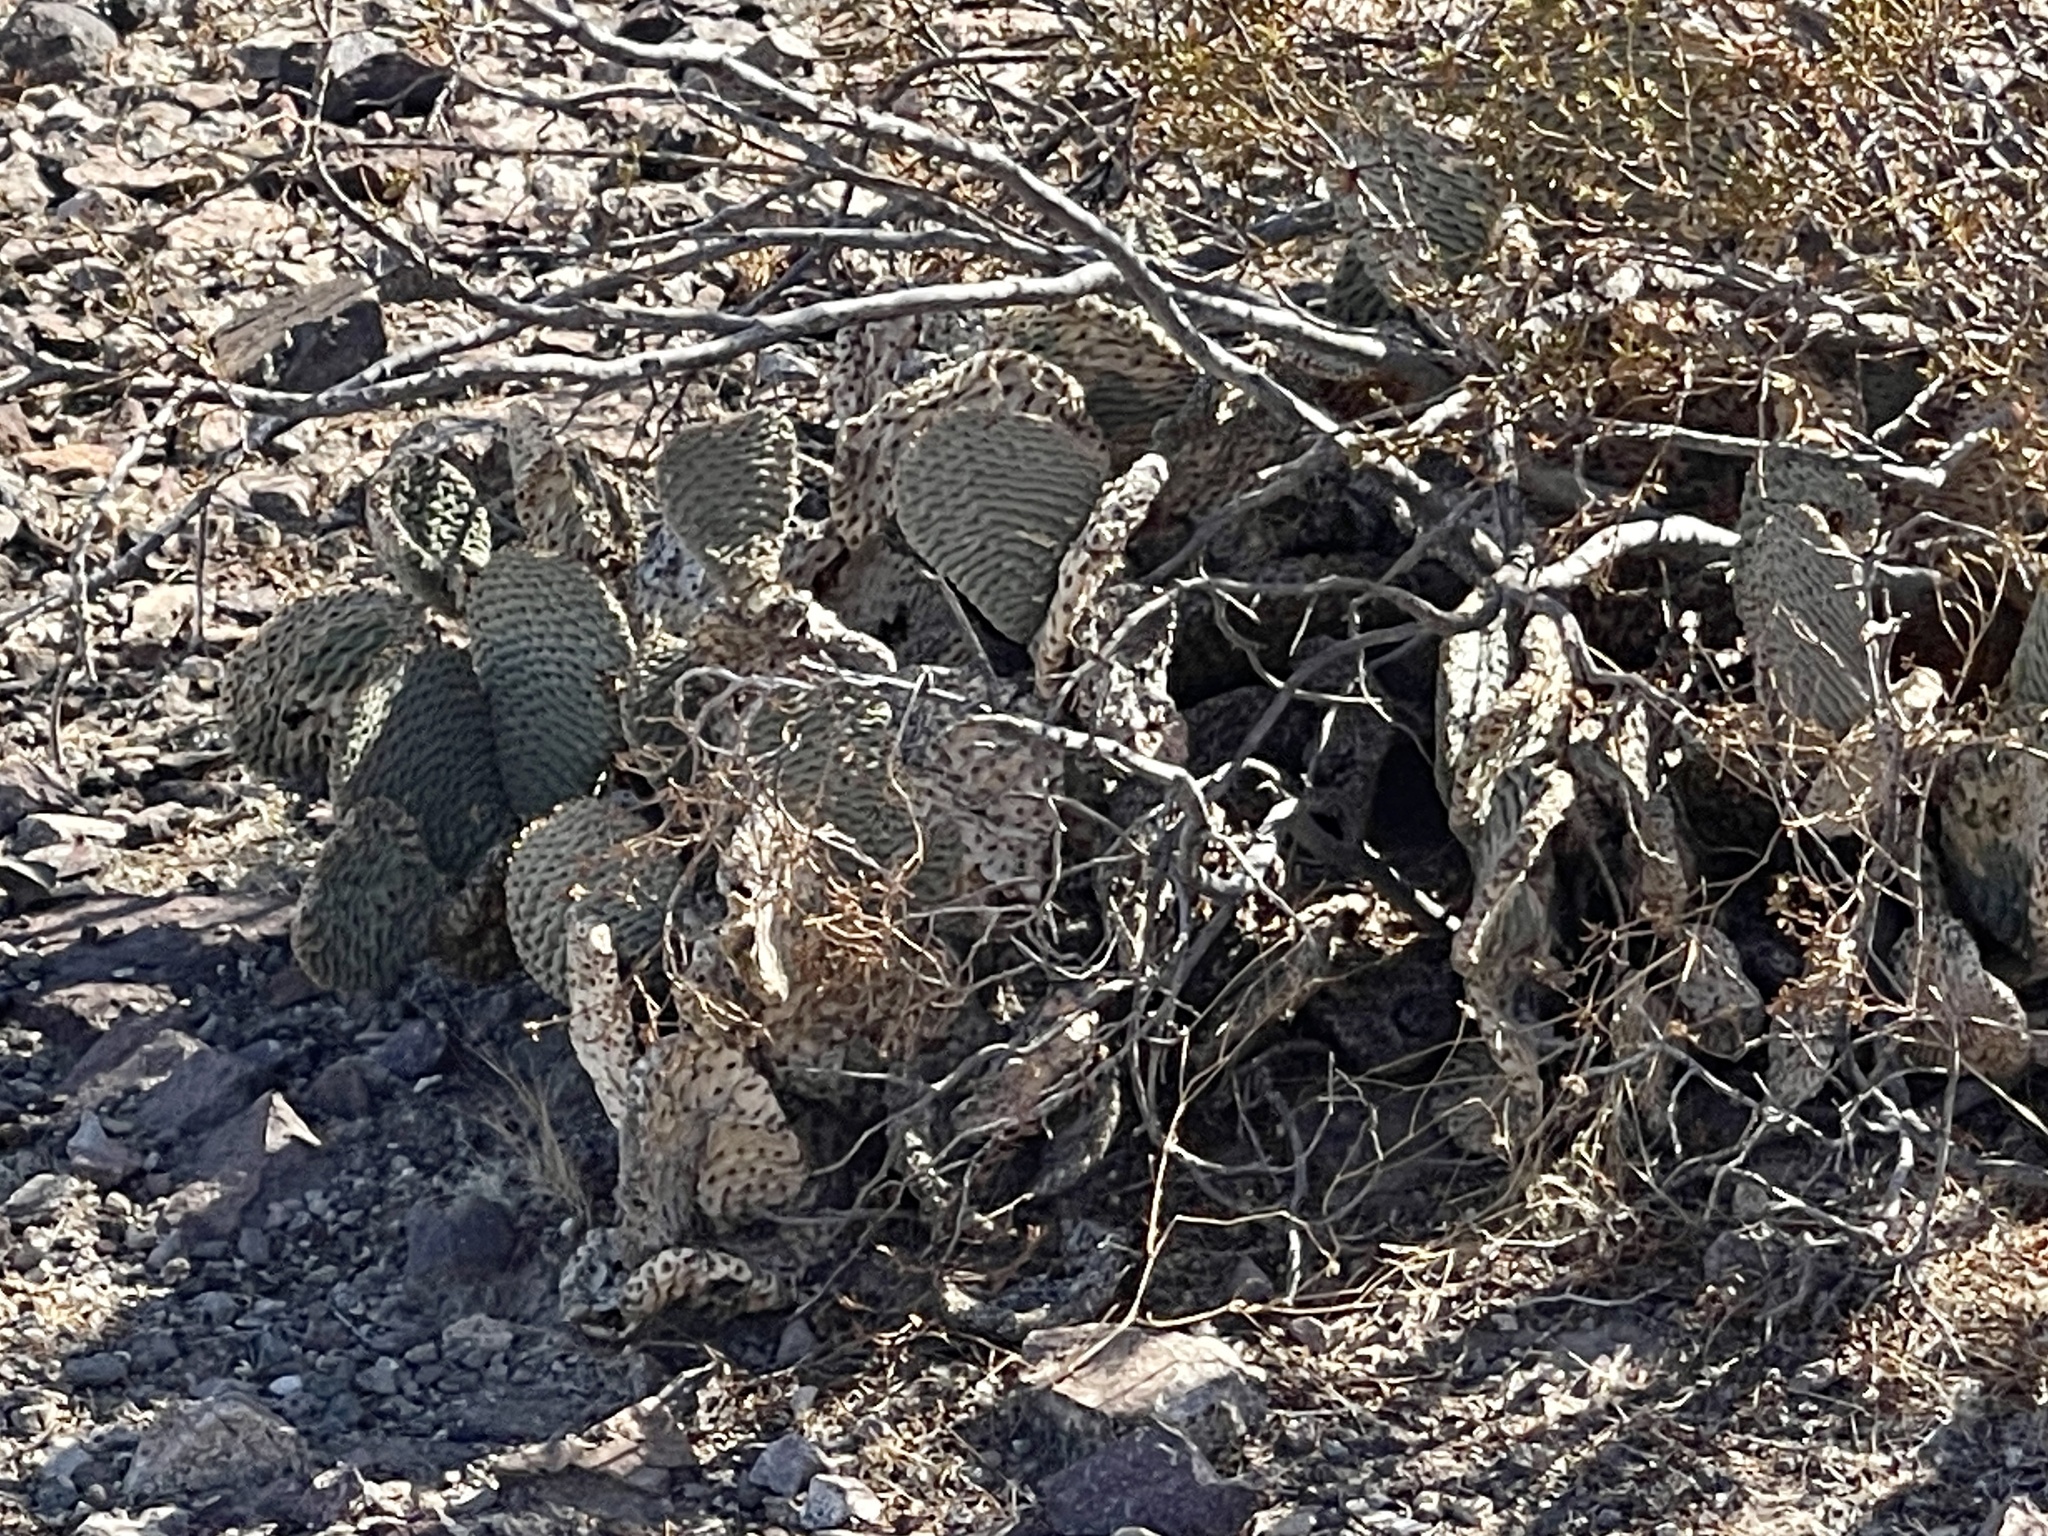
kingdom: Plantae
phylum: Tracheophyta
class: Magnoliopsida
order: Caryophyllales
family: Cactaceae
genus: Opuntia
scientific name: Opuntia basilaris
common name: Beavertail prickly-pear
